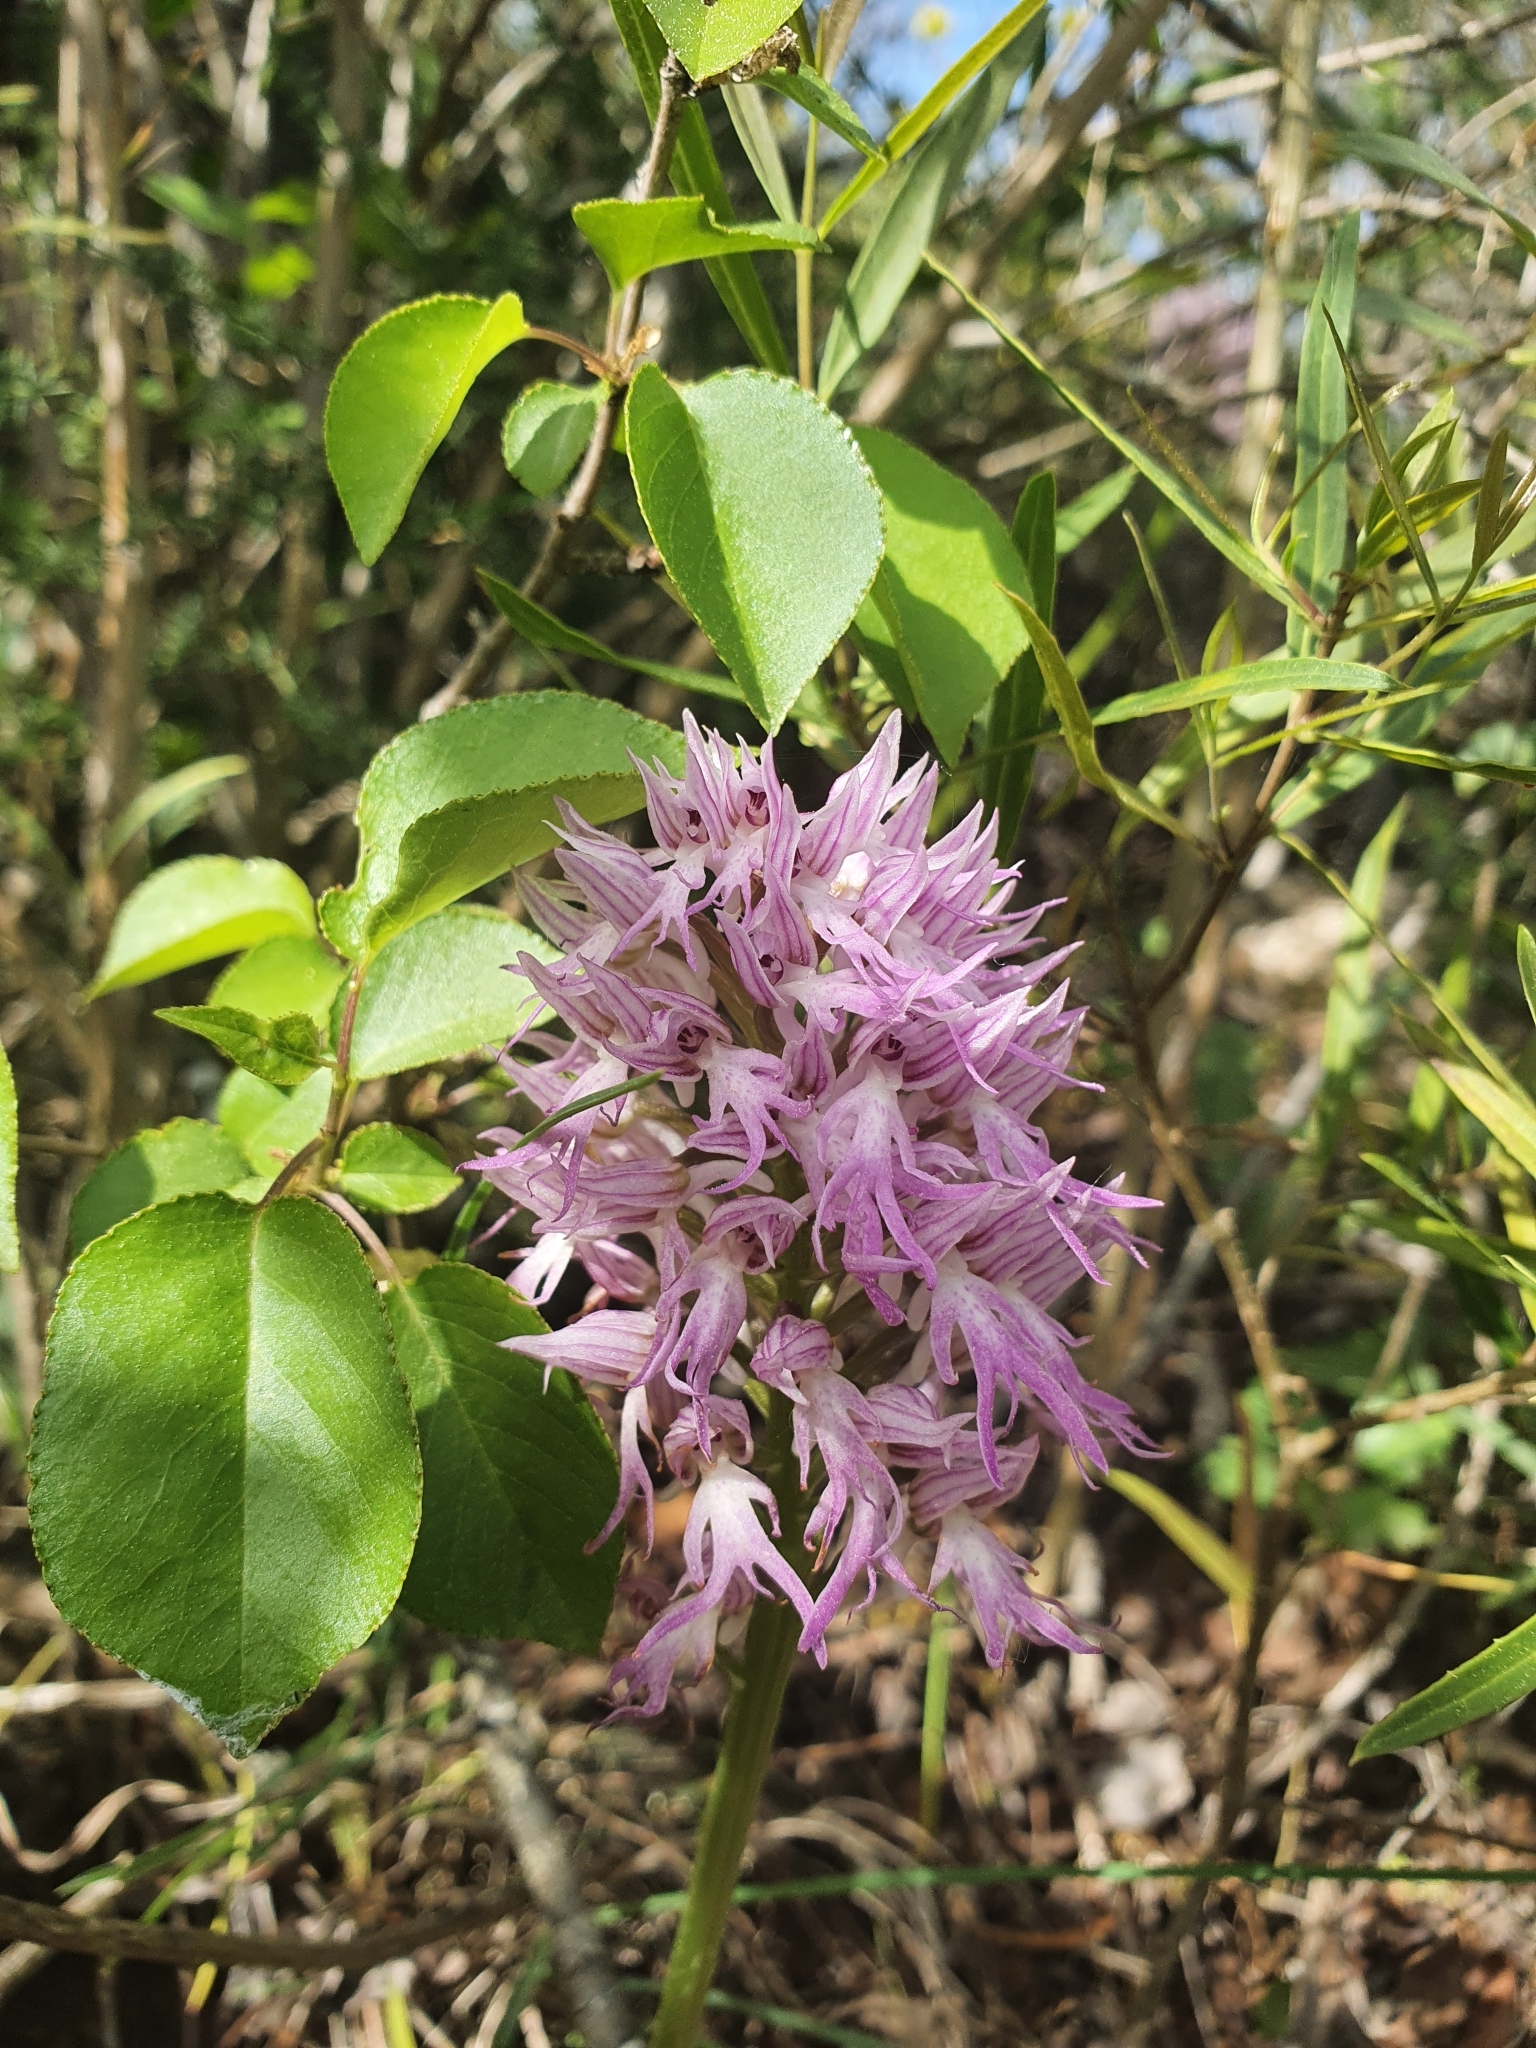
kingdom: Plantae
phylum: Tracheophyta
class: Liliopsida
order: Asparagales
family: Orchidaceae
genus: Orchis
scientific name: Orchis italica
